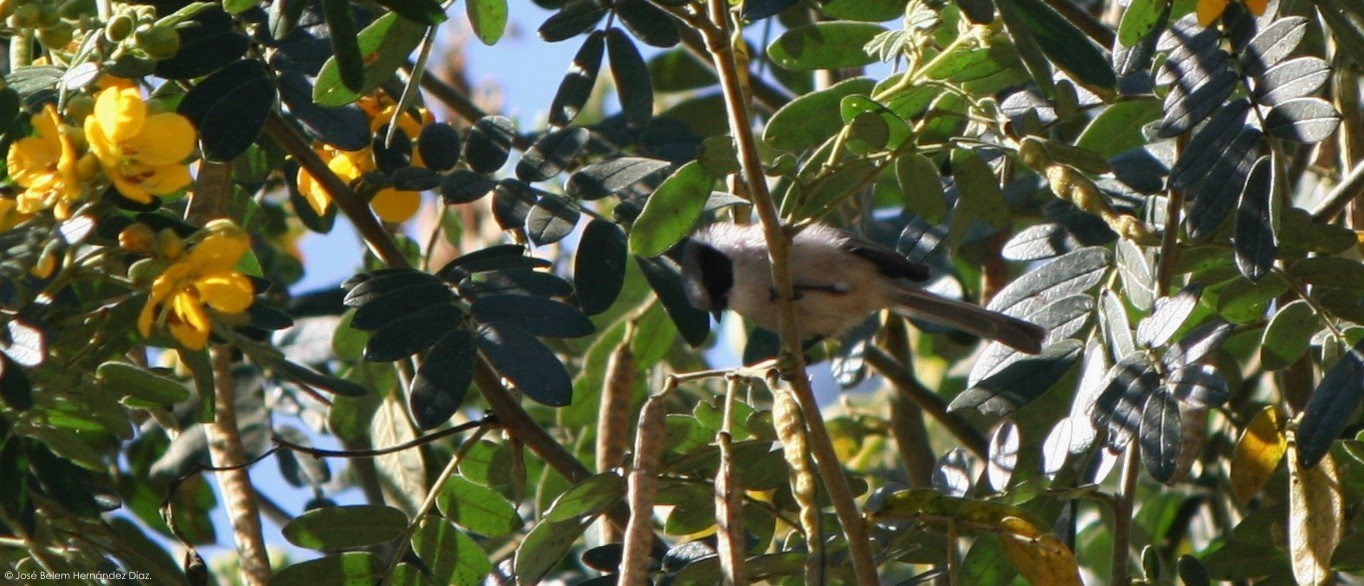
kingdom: Animalia
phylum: Chordata
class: Aves
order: Passeriformes
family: Aegithalidae
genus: Psaltriparus
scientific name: Psaltriparus minimus
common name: American bushtit
